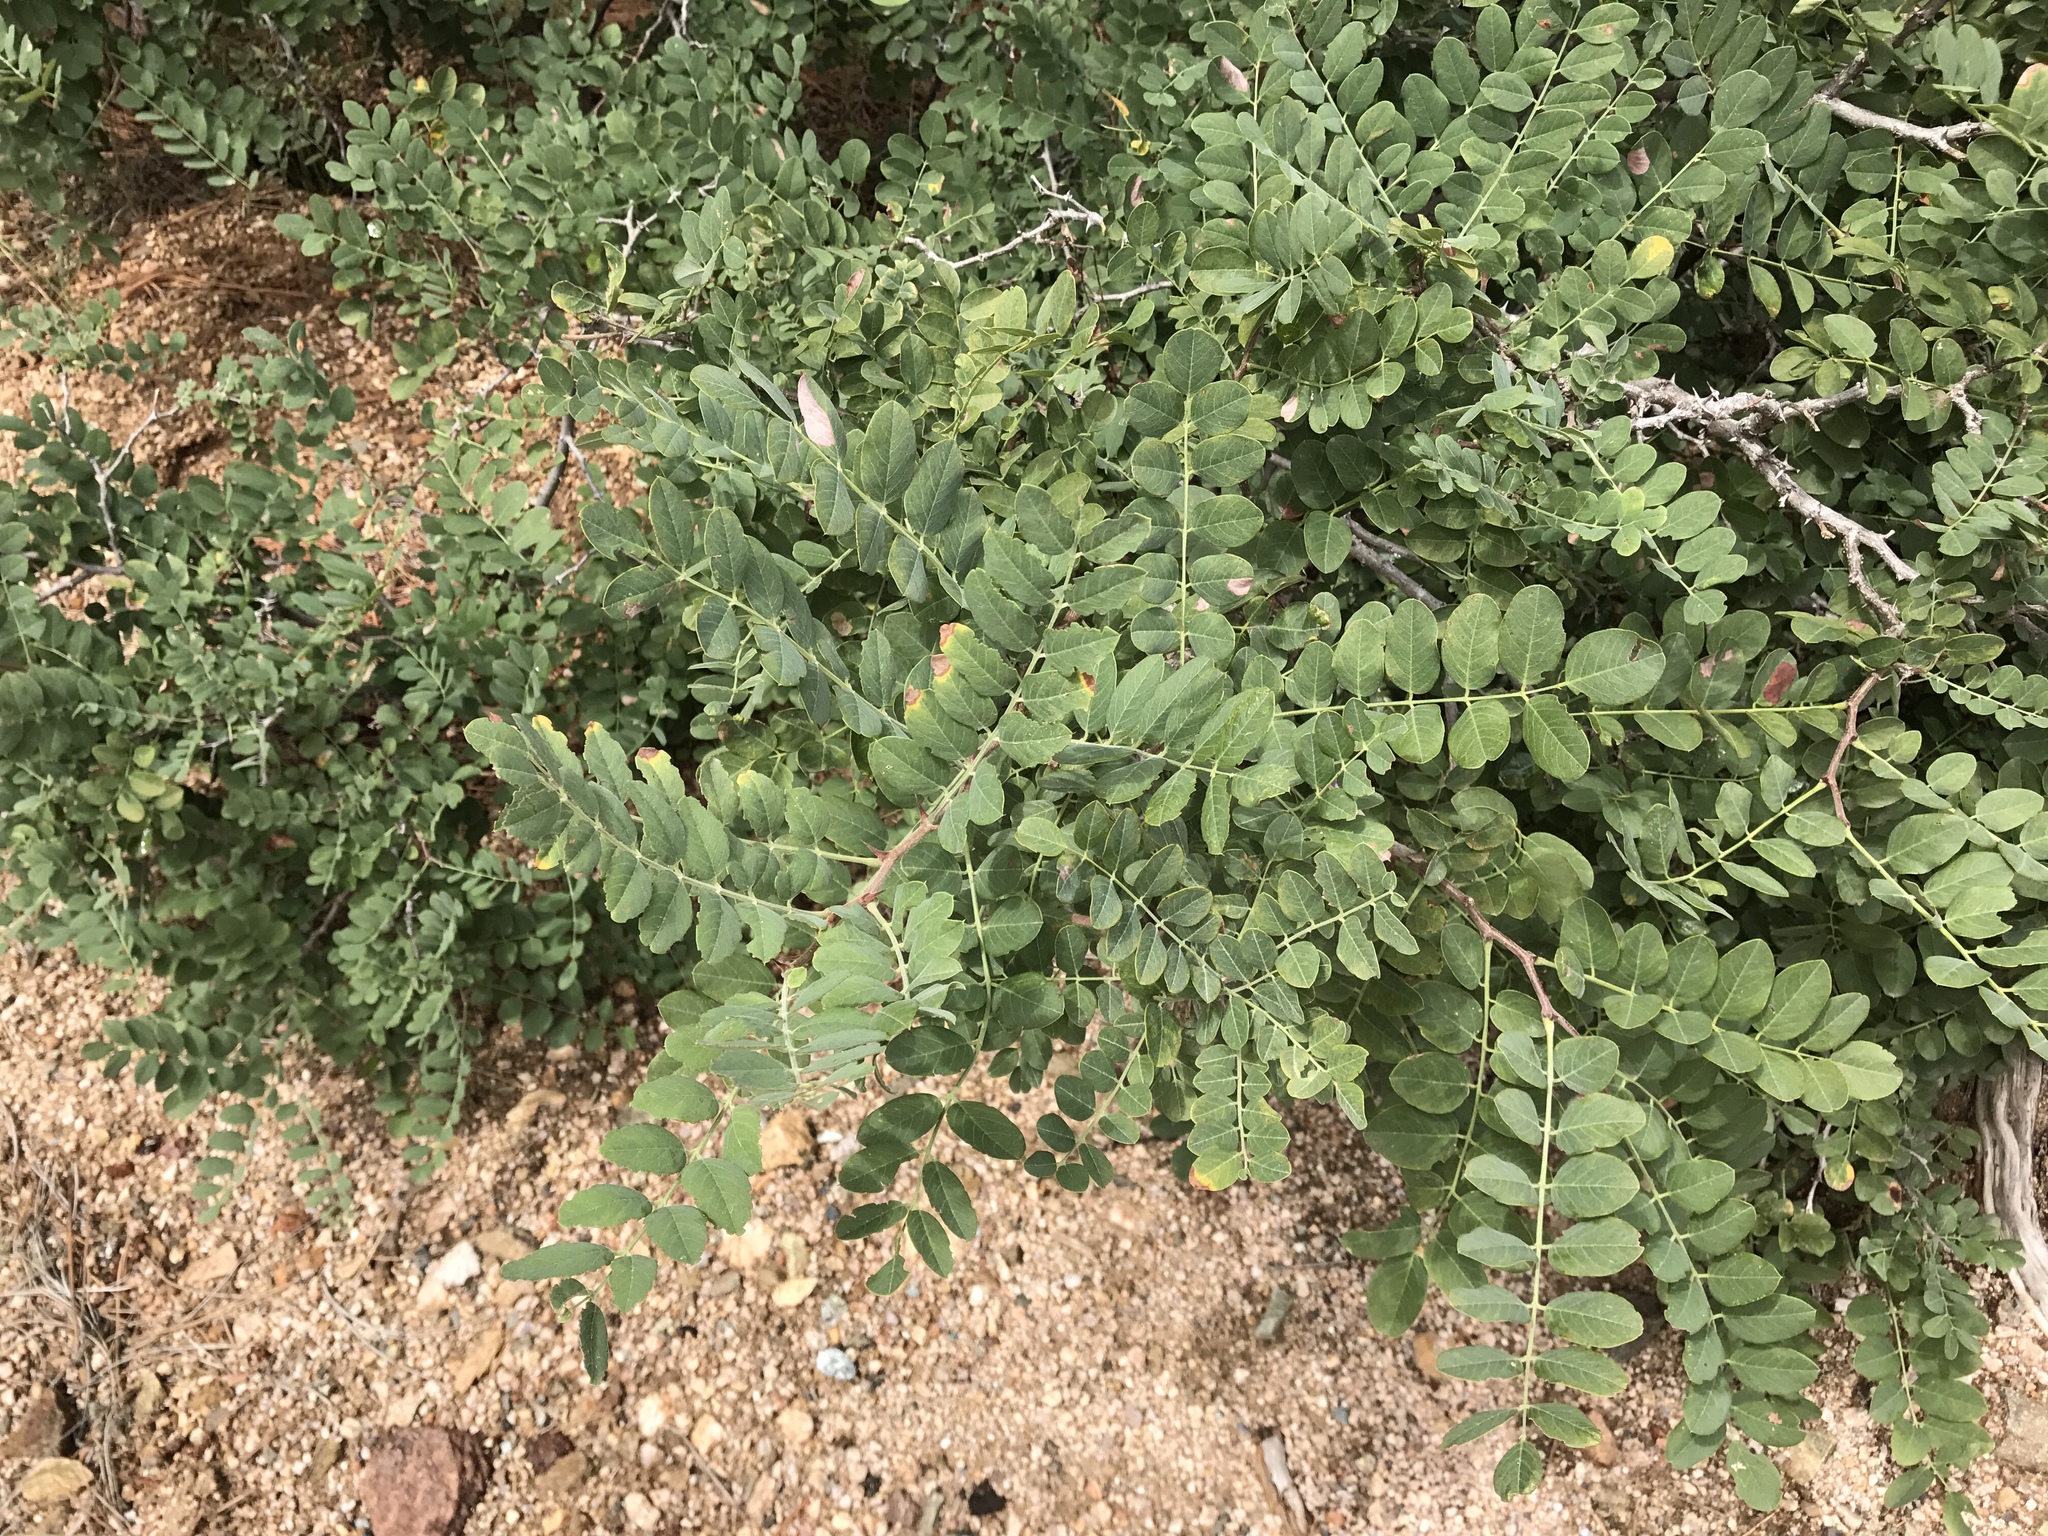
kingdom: Plantae
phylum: Tracheophyta
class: Magnoliopsida
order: Fabales
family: Fabaceae
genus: Robinia
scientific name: Robinia neomexicana
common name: New mexico locust
